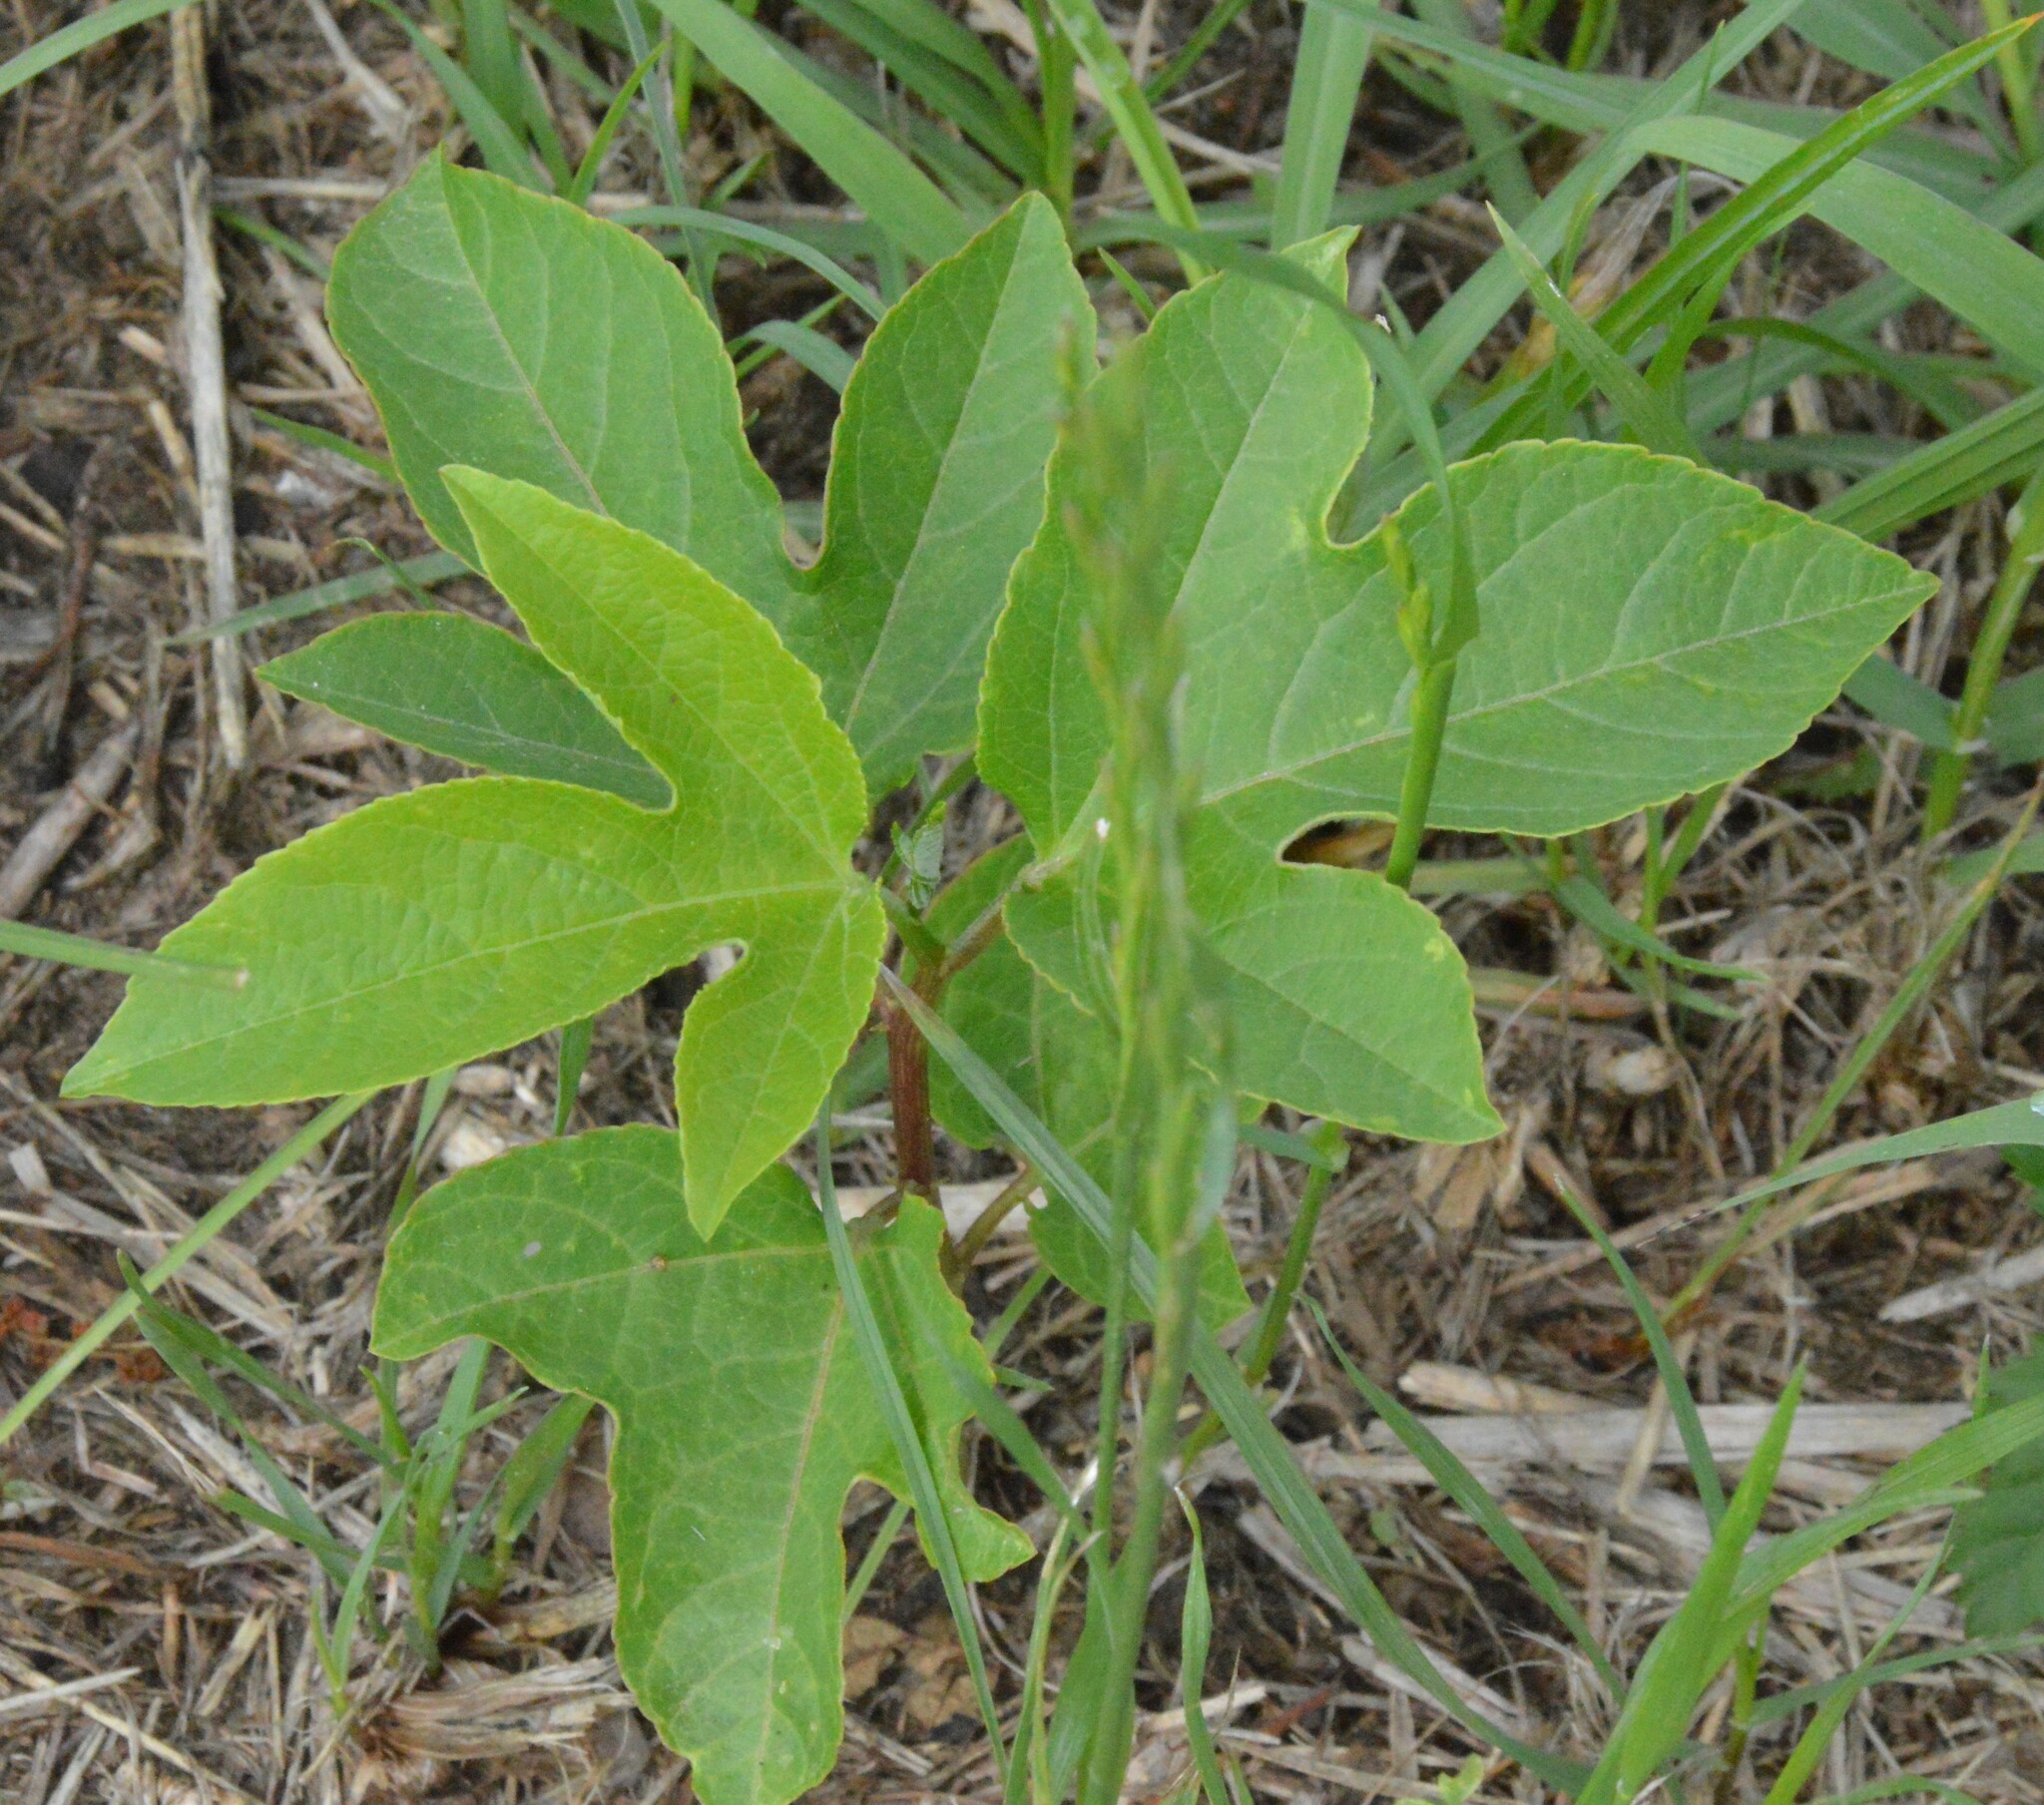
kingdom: Plantae
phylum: Tracheophyta
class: Magnoliopsida
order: Malpighiales
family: Passifloraceae
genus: Passiflora
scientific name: Passiflora incarnata
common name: Apricot-vine
